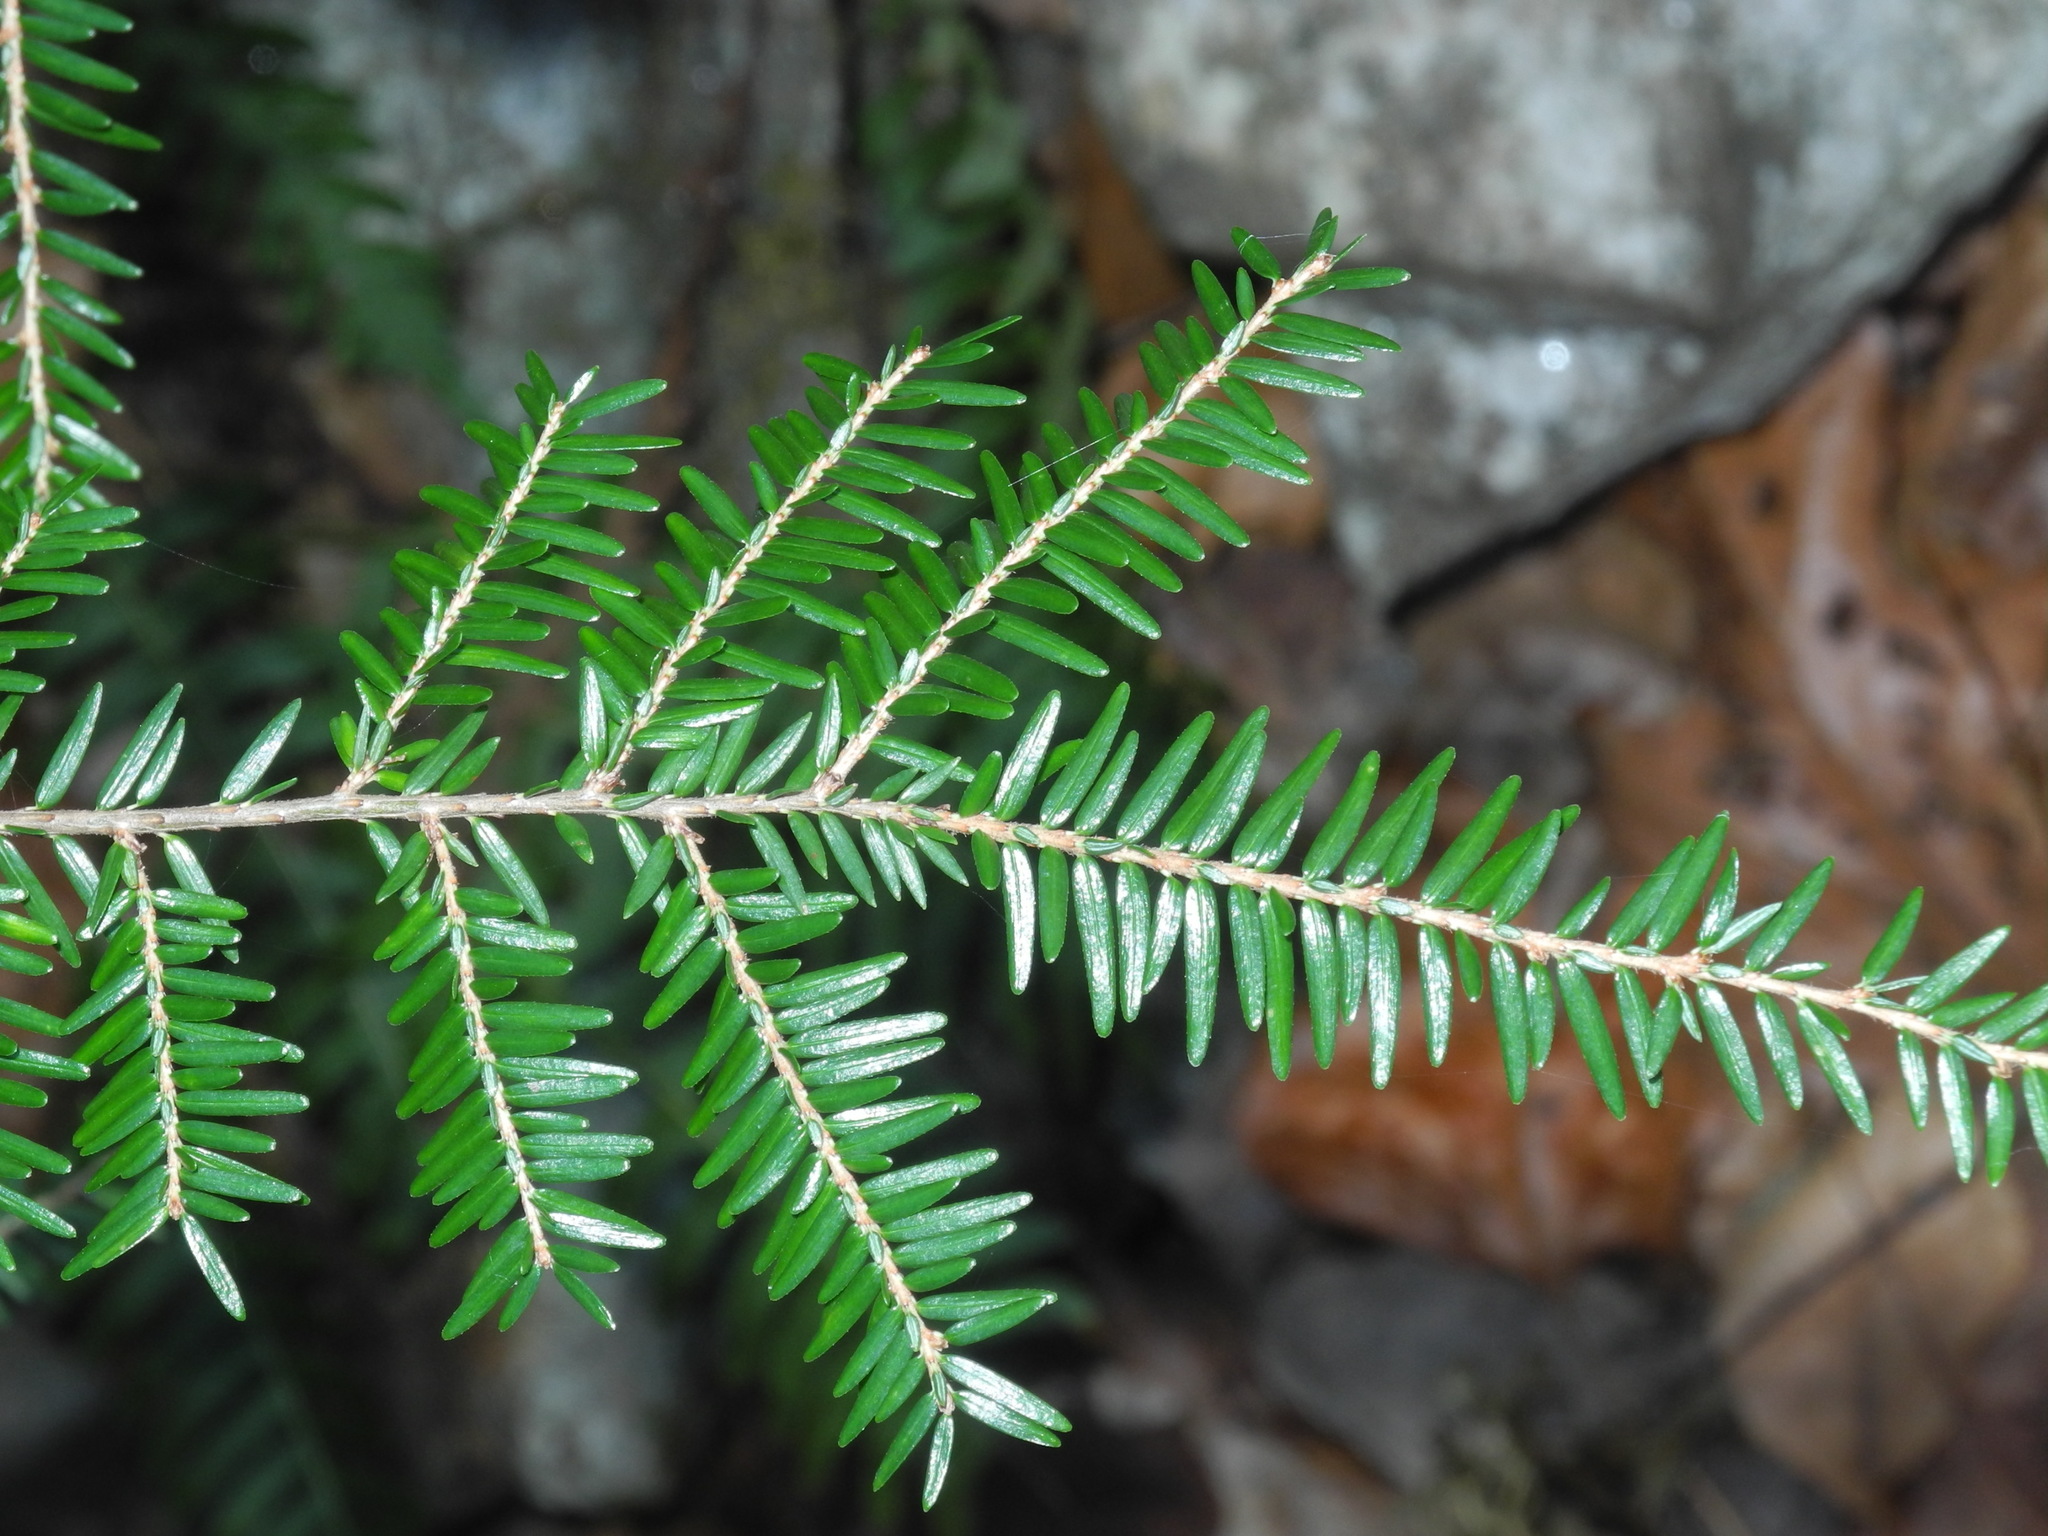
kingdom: Plantae
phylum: Tracheophyta
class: Pinopsida
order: Pinales
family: Pinaceae
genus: Tsuga
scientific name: Tsuga canadensis
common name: Eastern hemlock
